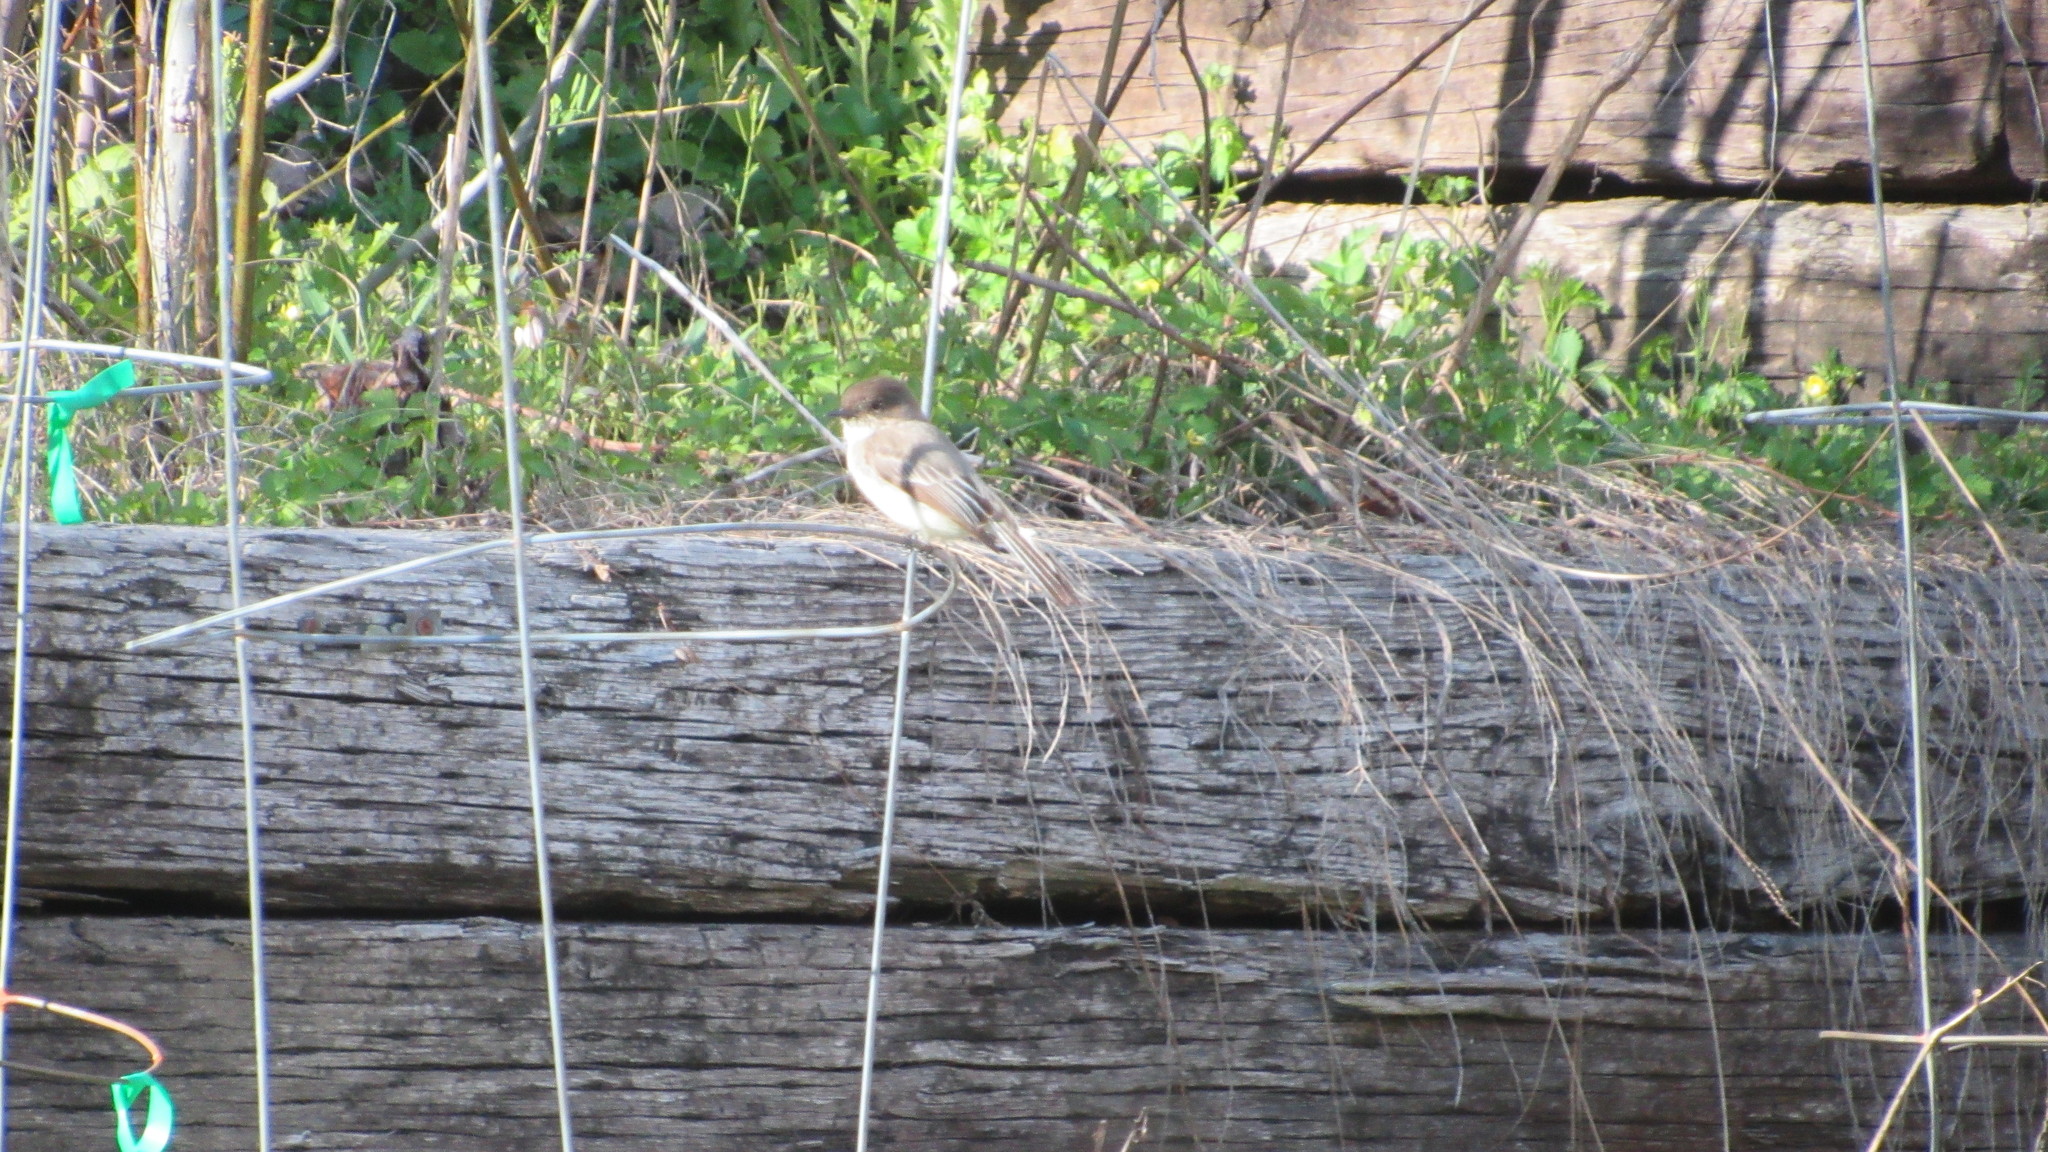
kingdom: Animalia
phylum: Chordata
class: Aves
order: Passeriformes
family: Tyrannidae
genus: Sayornis
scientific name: Sayornis phoebe
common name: Eastern phoebe
